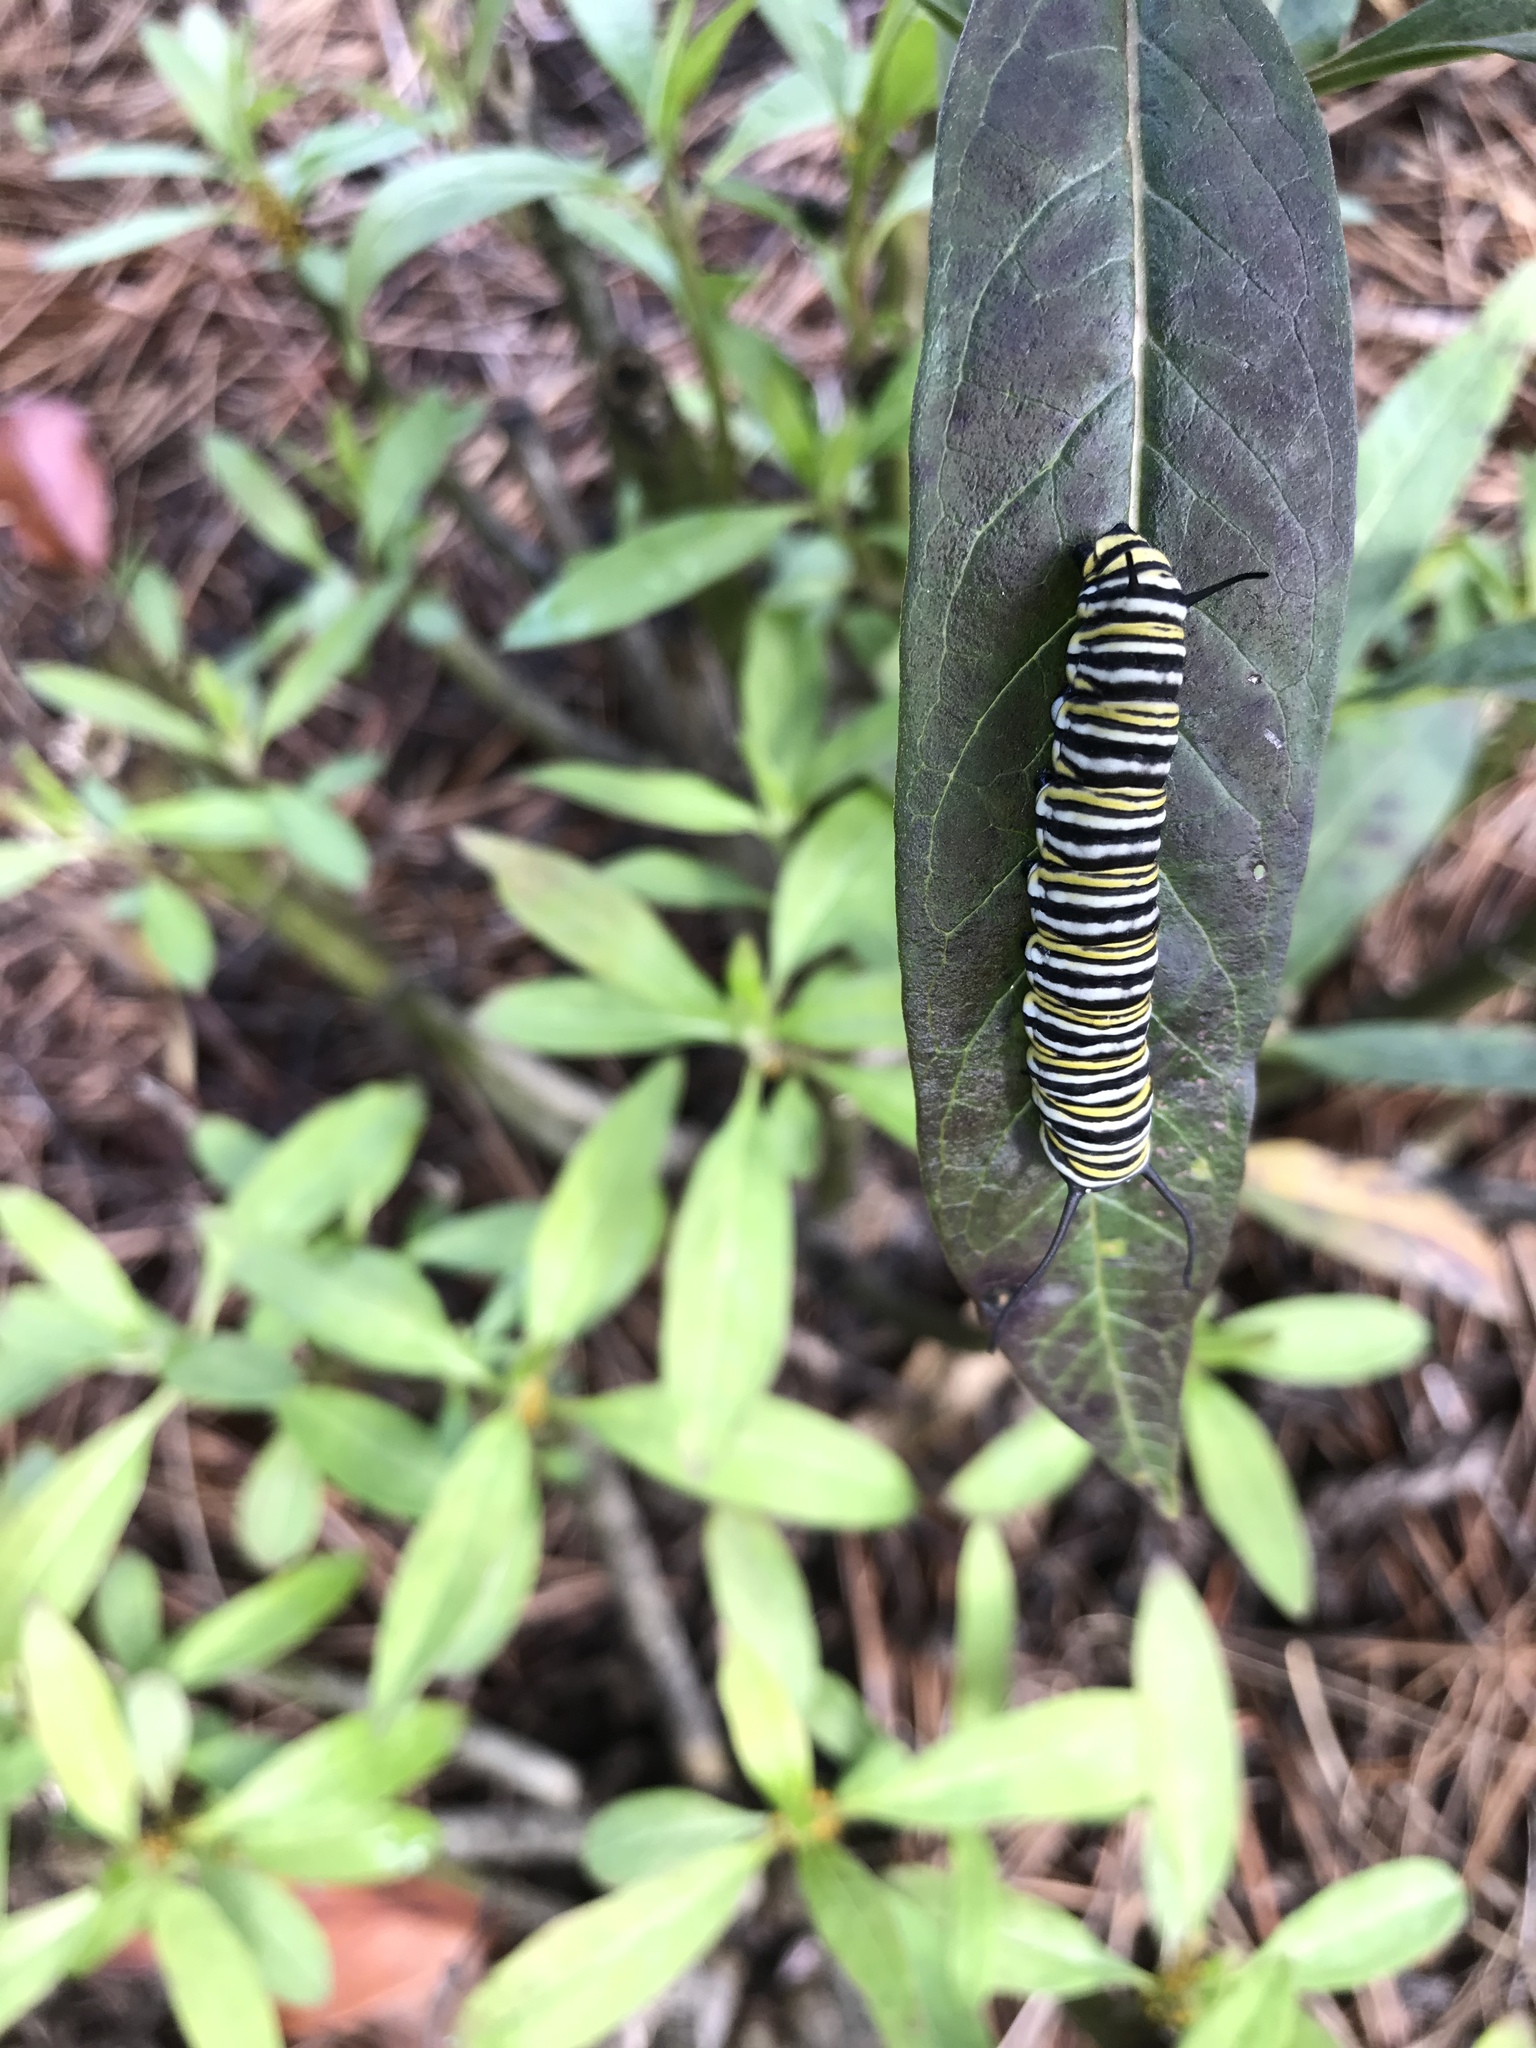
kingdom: Animalia
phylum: Arthropoda
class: Insecta
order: Lepidoptera
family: Nymphalidae
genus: Danaus
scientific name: Danaus plexippus
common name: Monarch
